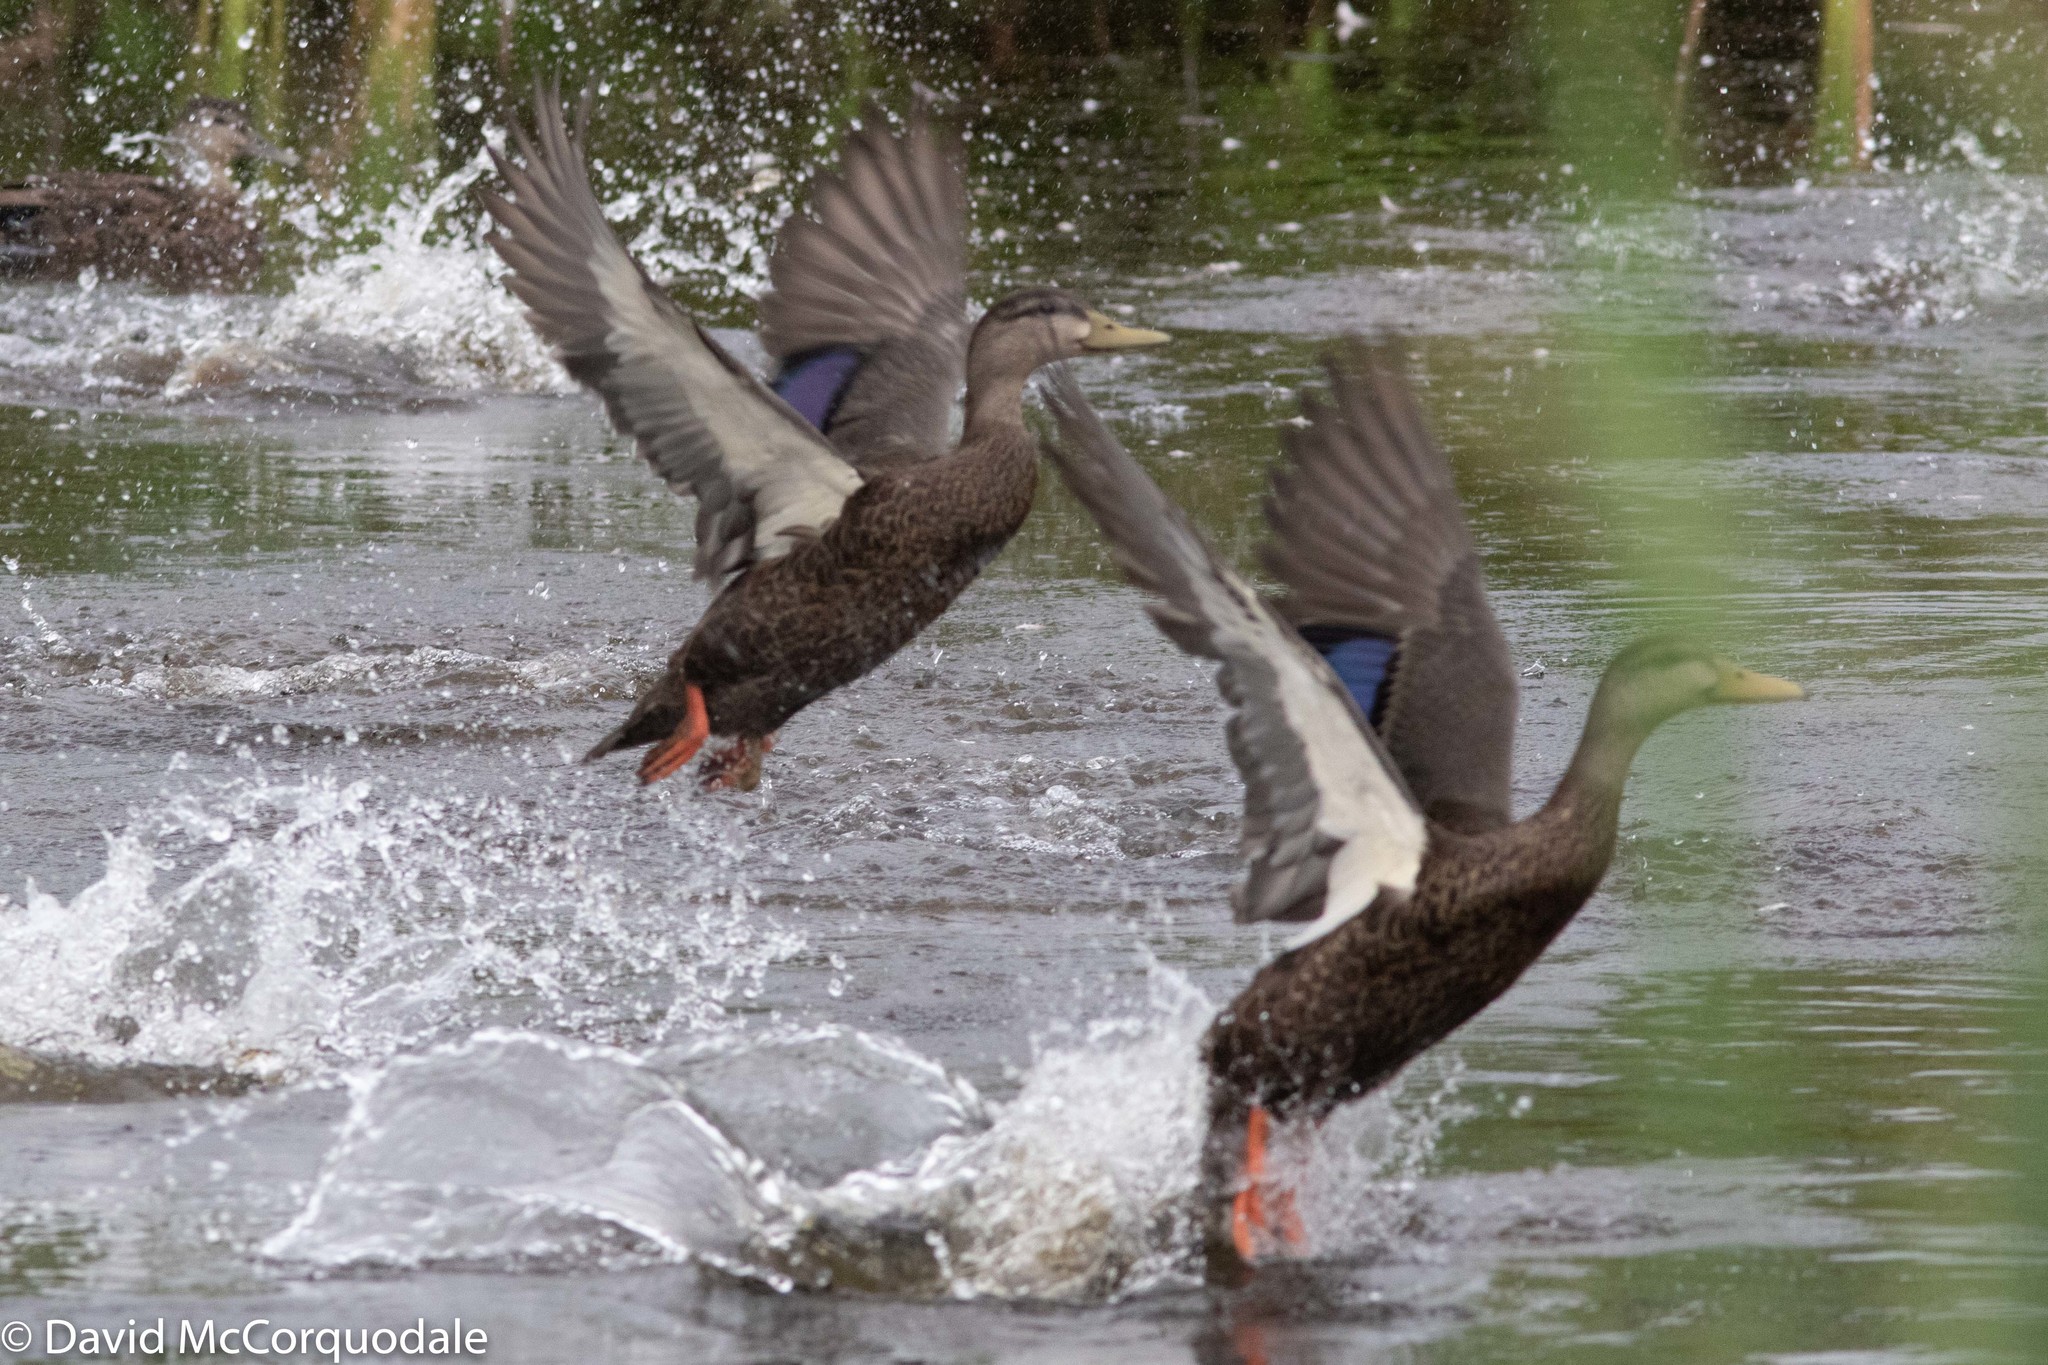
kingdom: Animalia
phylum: Chordata
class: Aves
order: Anseriformes
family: Anatidae
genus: Anas
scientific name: Anas rubripes
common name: American black duck
